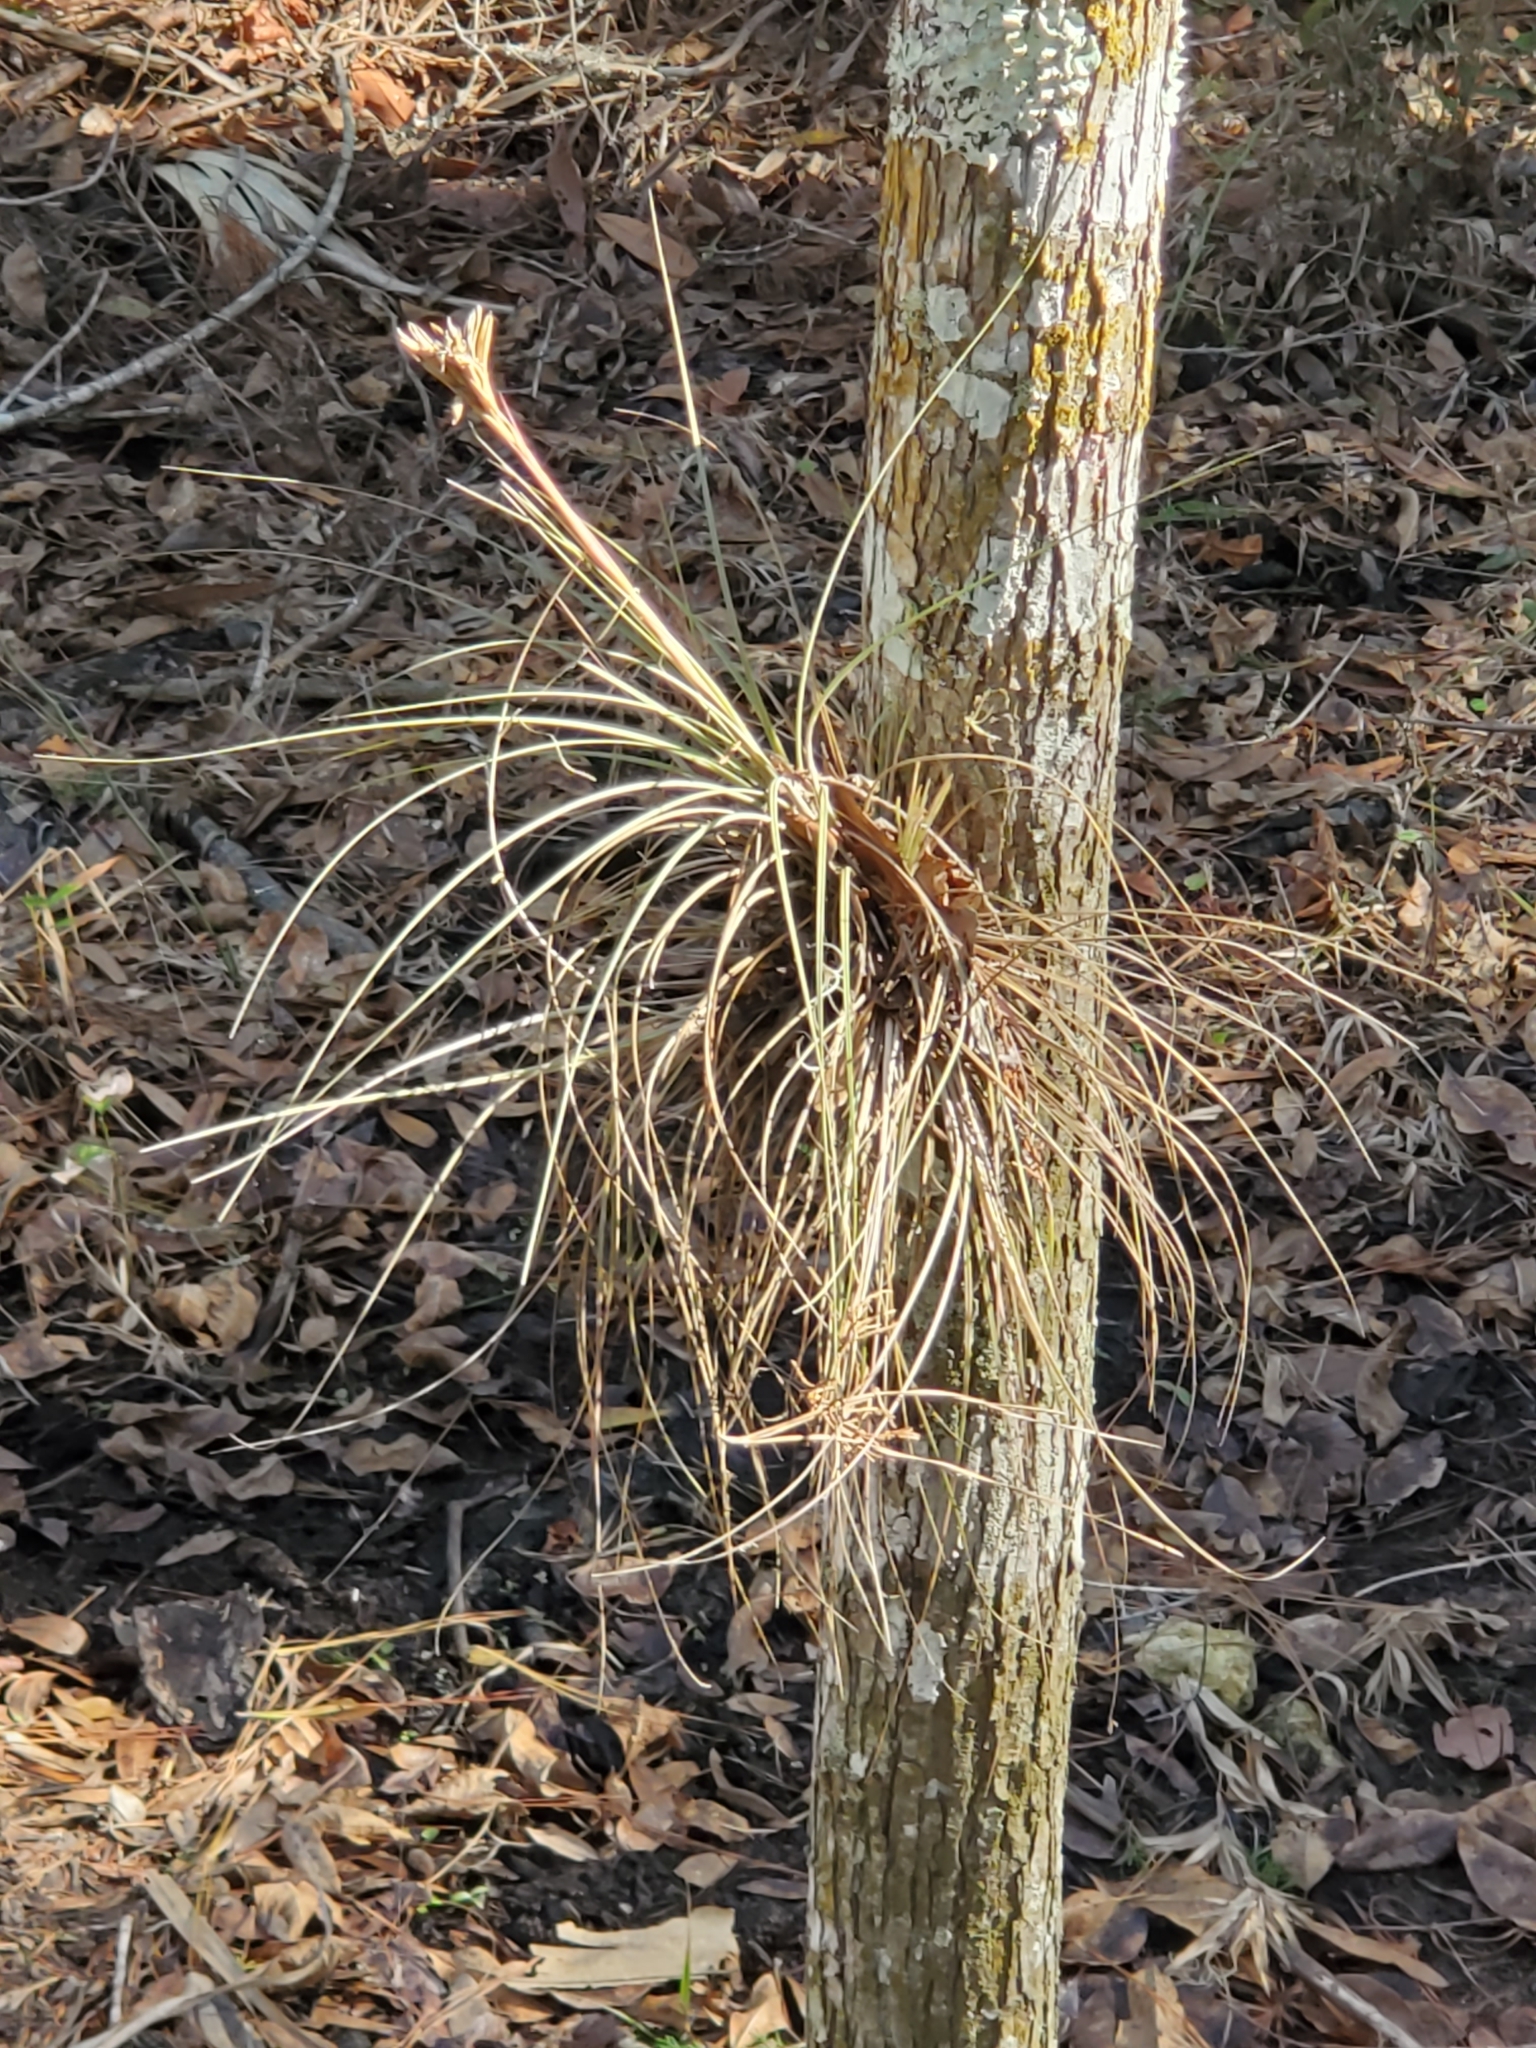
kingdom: Plantae
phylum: Tracheophyta
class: Liliopsida
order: Poales
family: Bromeliaceae
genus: Tillandsia
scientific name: Tillandsia bartramii
